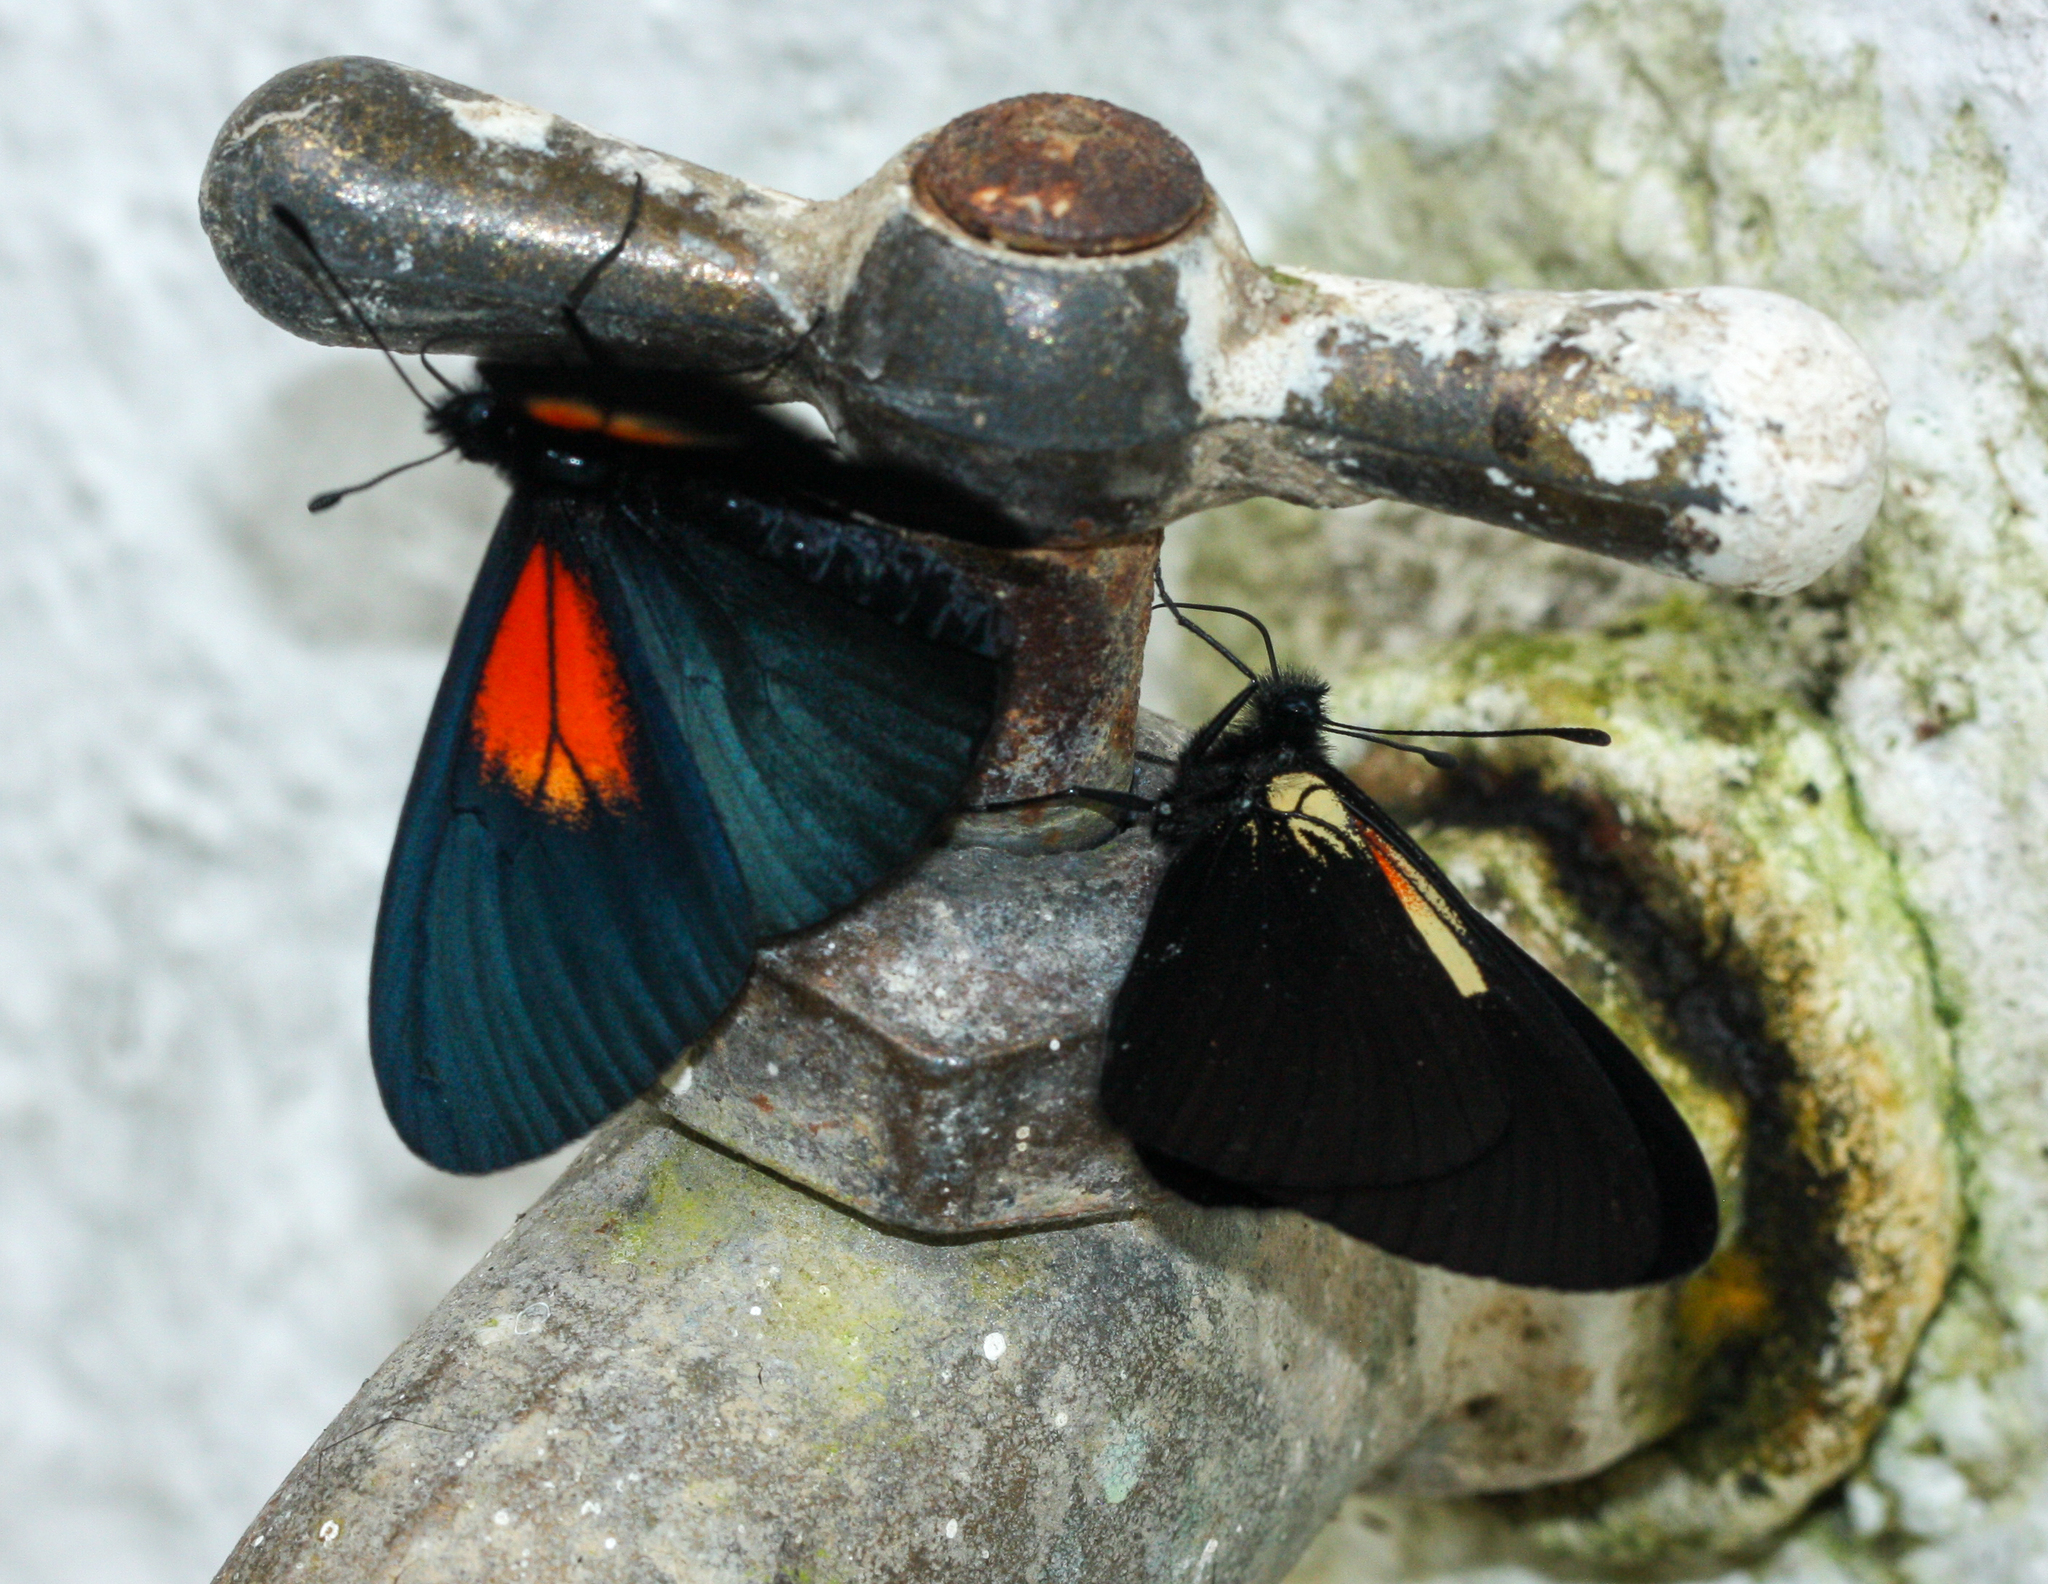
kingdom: Animalia
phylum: Arthropoda
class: Insecta
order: Lepidoptera
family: Nymphalidae
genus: Acraea
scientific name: Acraea Altinote ozomene
